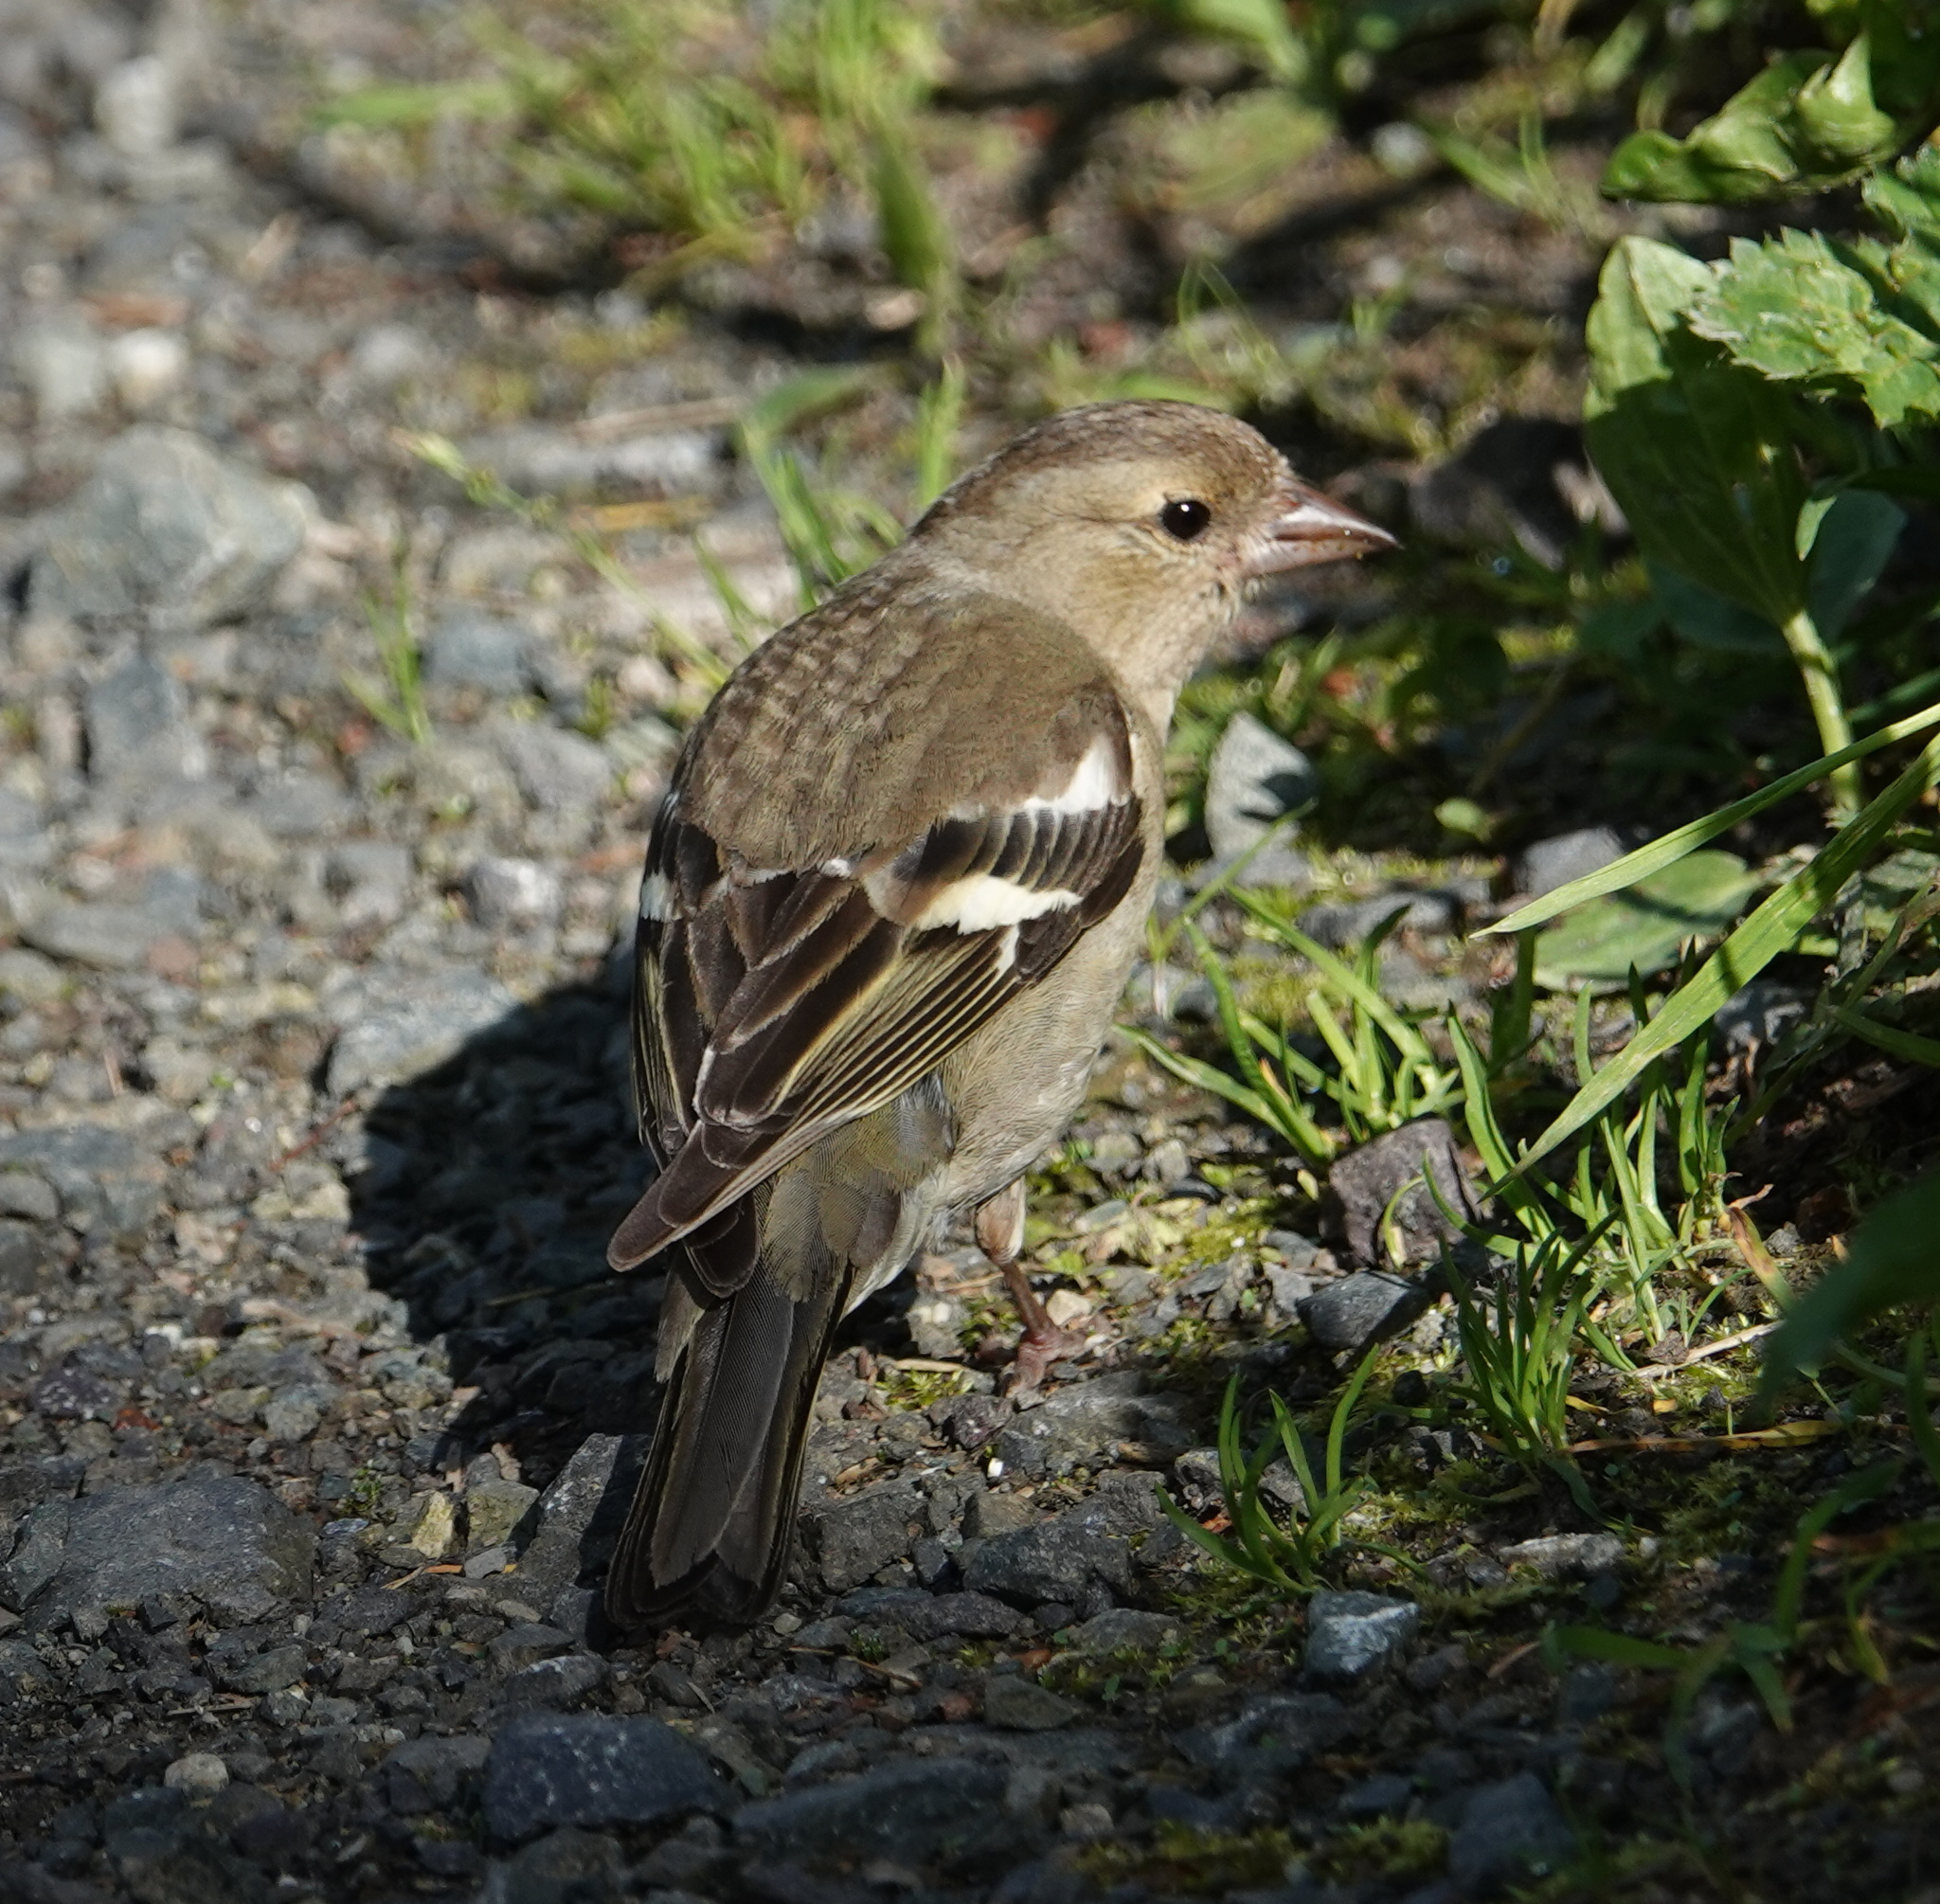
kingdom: Animalia
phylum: Chordata
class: Aves
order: Passeriformes
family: Fringillidae
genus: Fringilla
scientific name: Fringilla coelebs
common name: Common chaffinch
